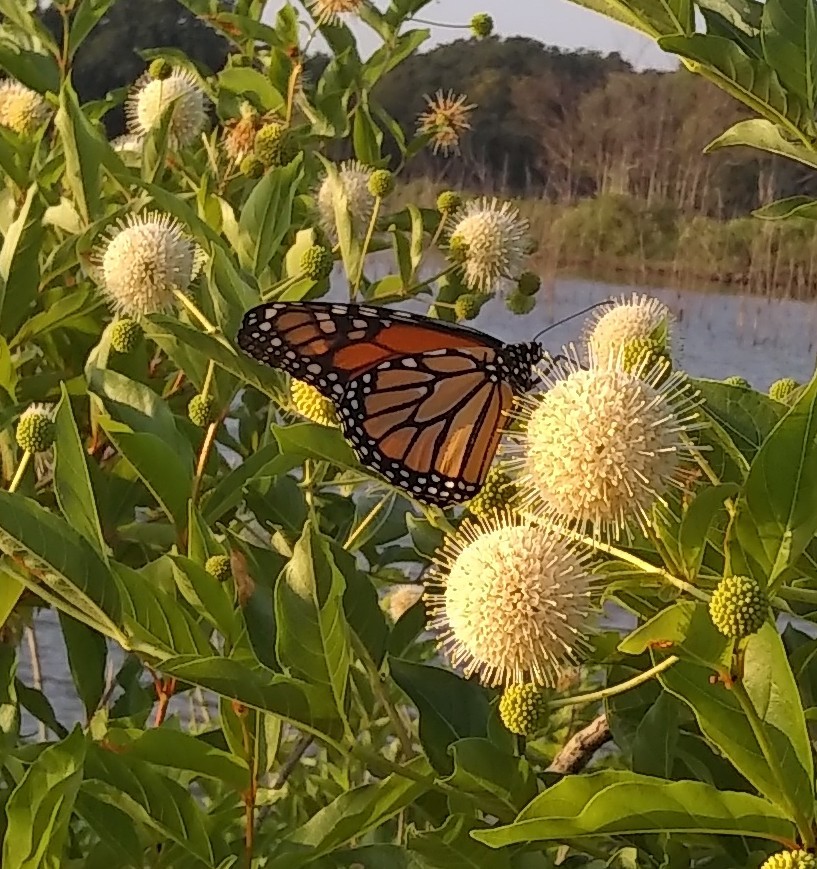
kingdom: Animalia
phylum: Arthropoda
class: Insecta
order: Lepidoptera
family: Nymphalidae
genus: Danaus
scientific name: Danaus plexippus
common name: Monarch
